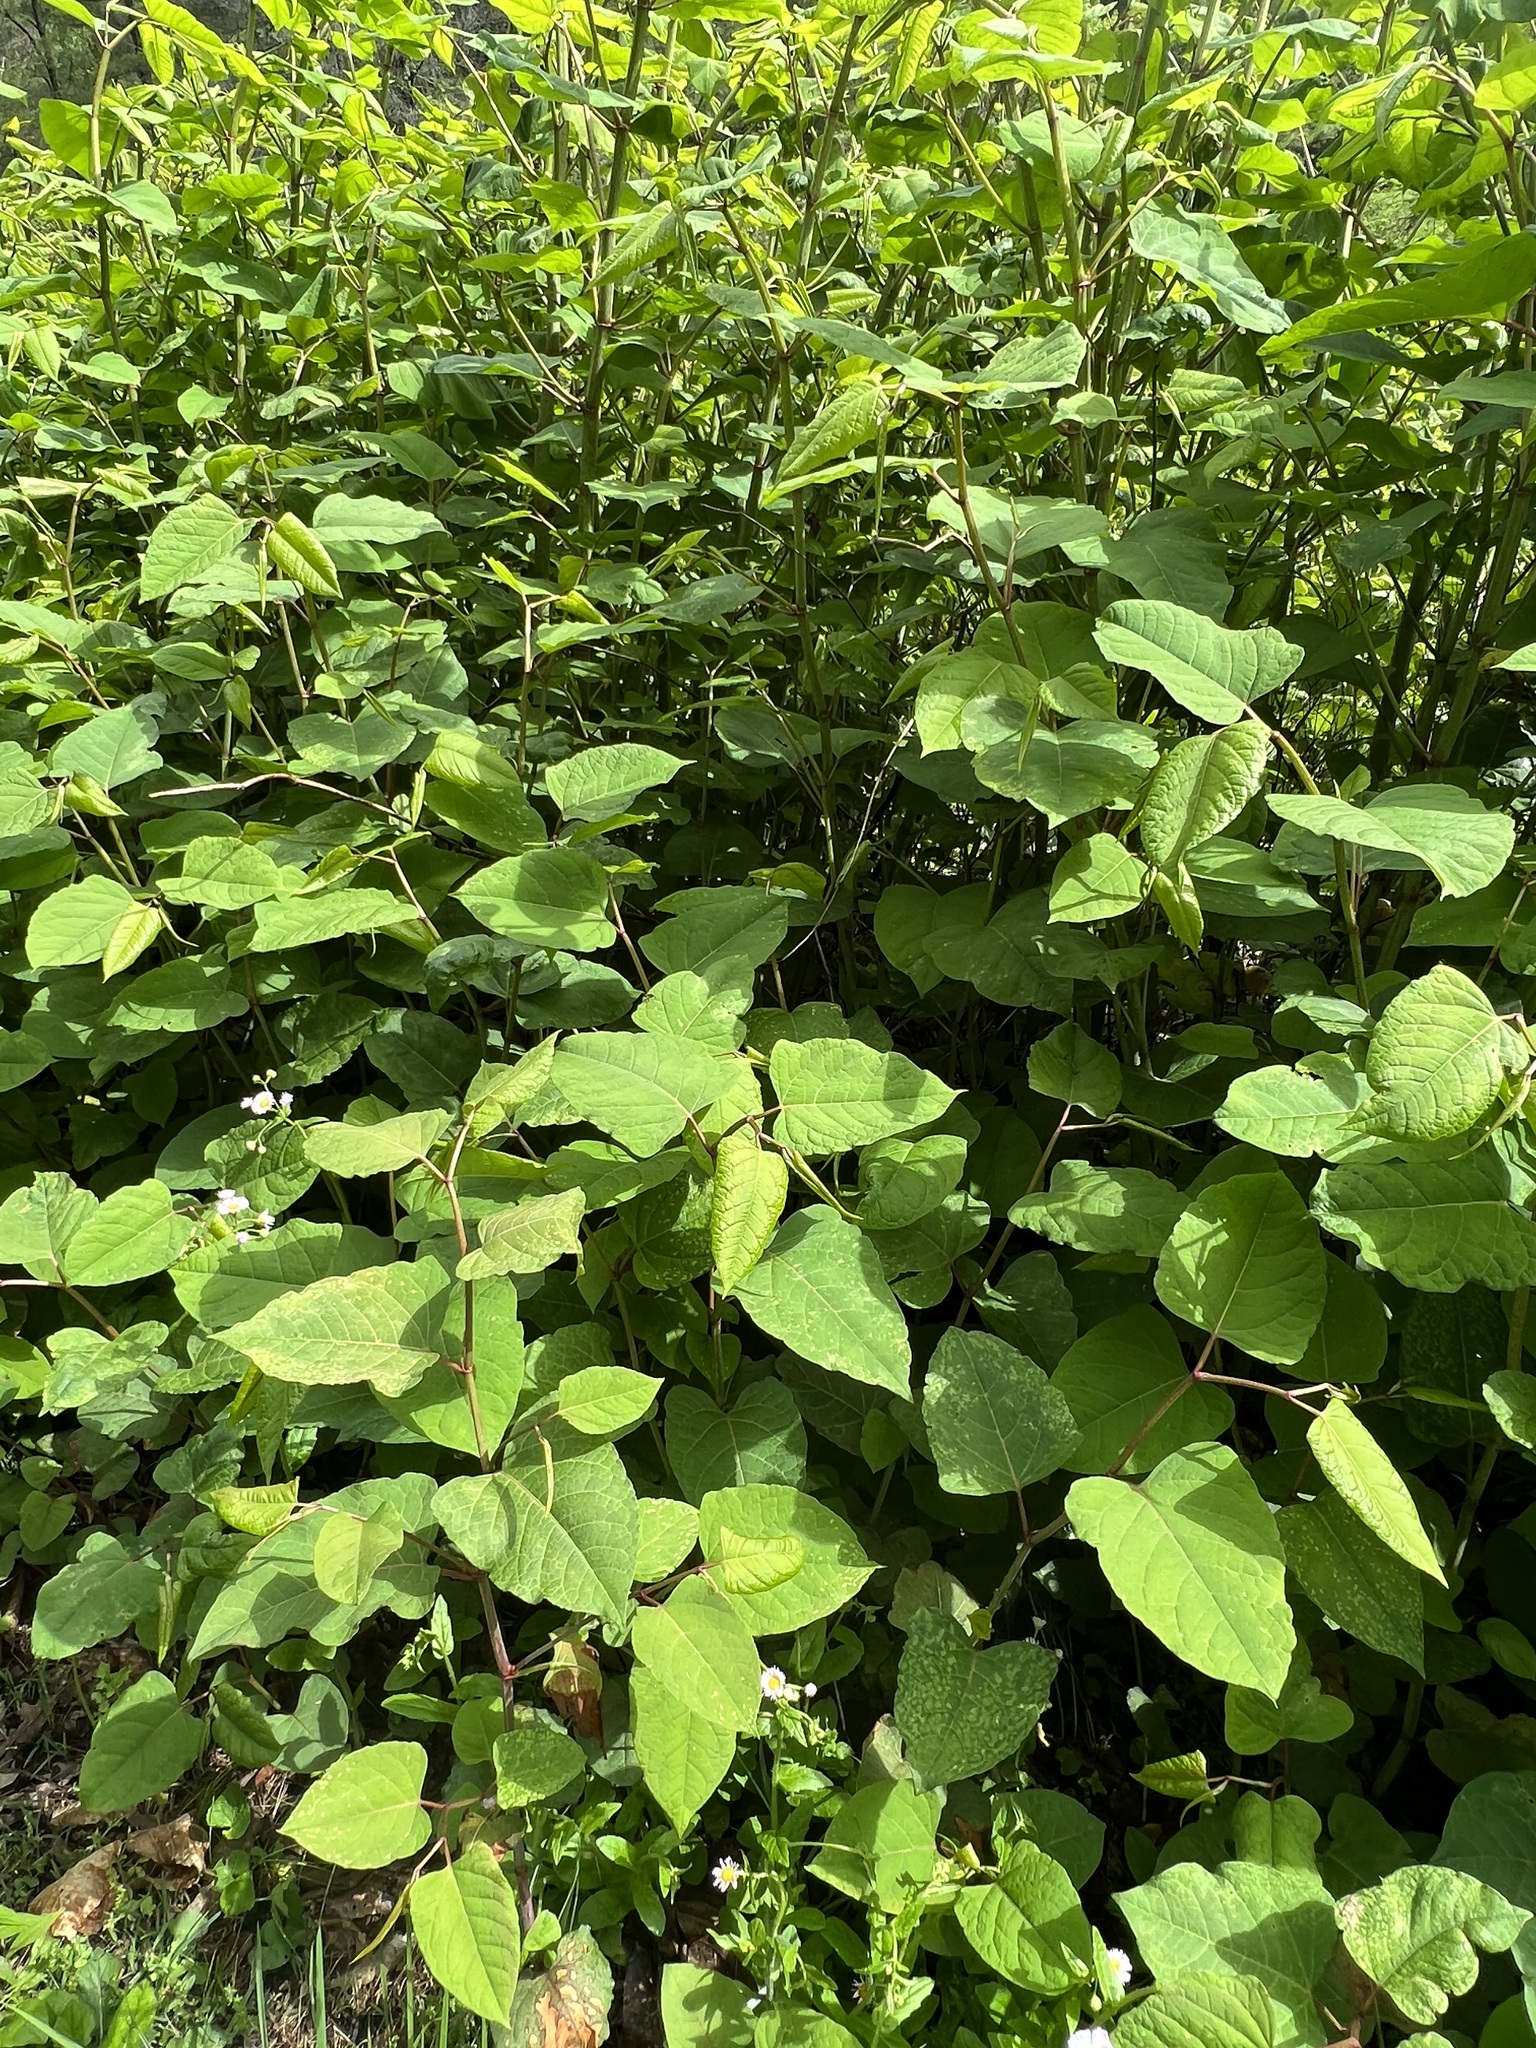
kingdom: Plantae
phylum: Tracheophyta
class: Magnoliopsida
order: Caryophyllales
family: Polygonaceae
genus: Reynoutria
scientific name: Reynoutria japonica
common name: Japanese knotweed
